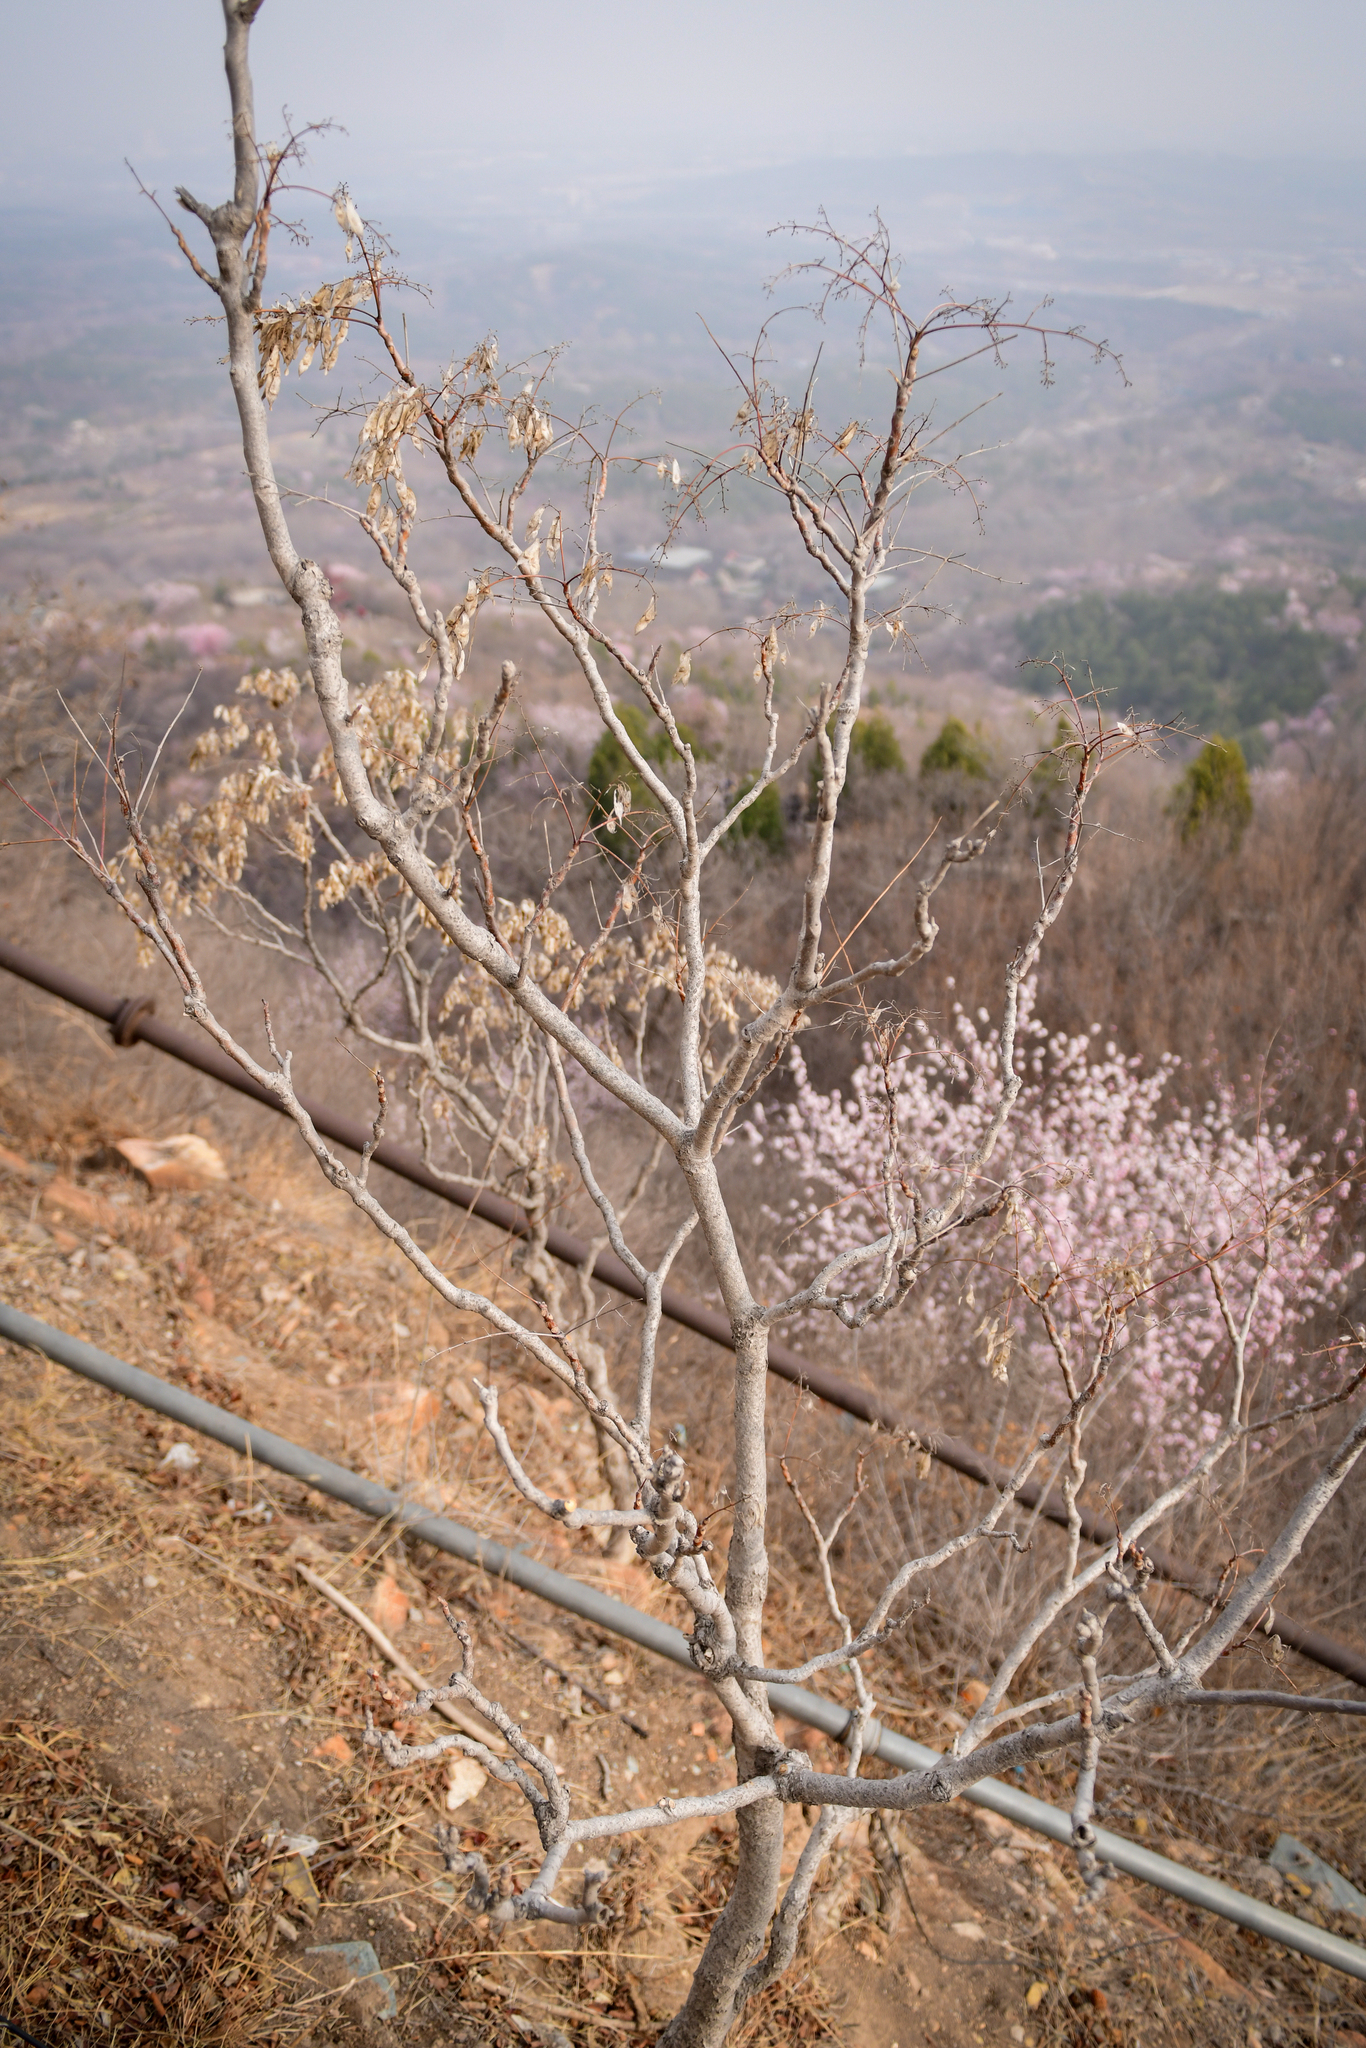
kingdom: Plantae
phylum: Tracheophyta
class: Magnoliopsida
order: Sapindales
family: Simaroubaceae
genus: Ailanthus
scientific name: Ailanthus altissima
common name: Tree-of-heaven
